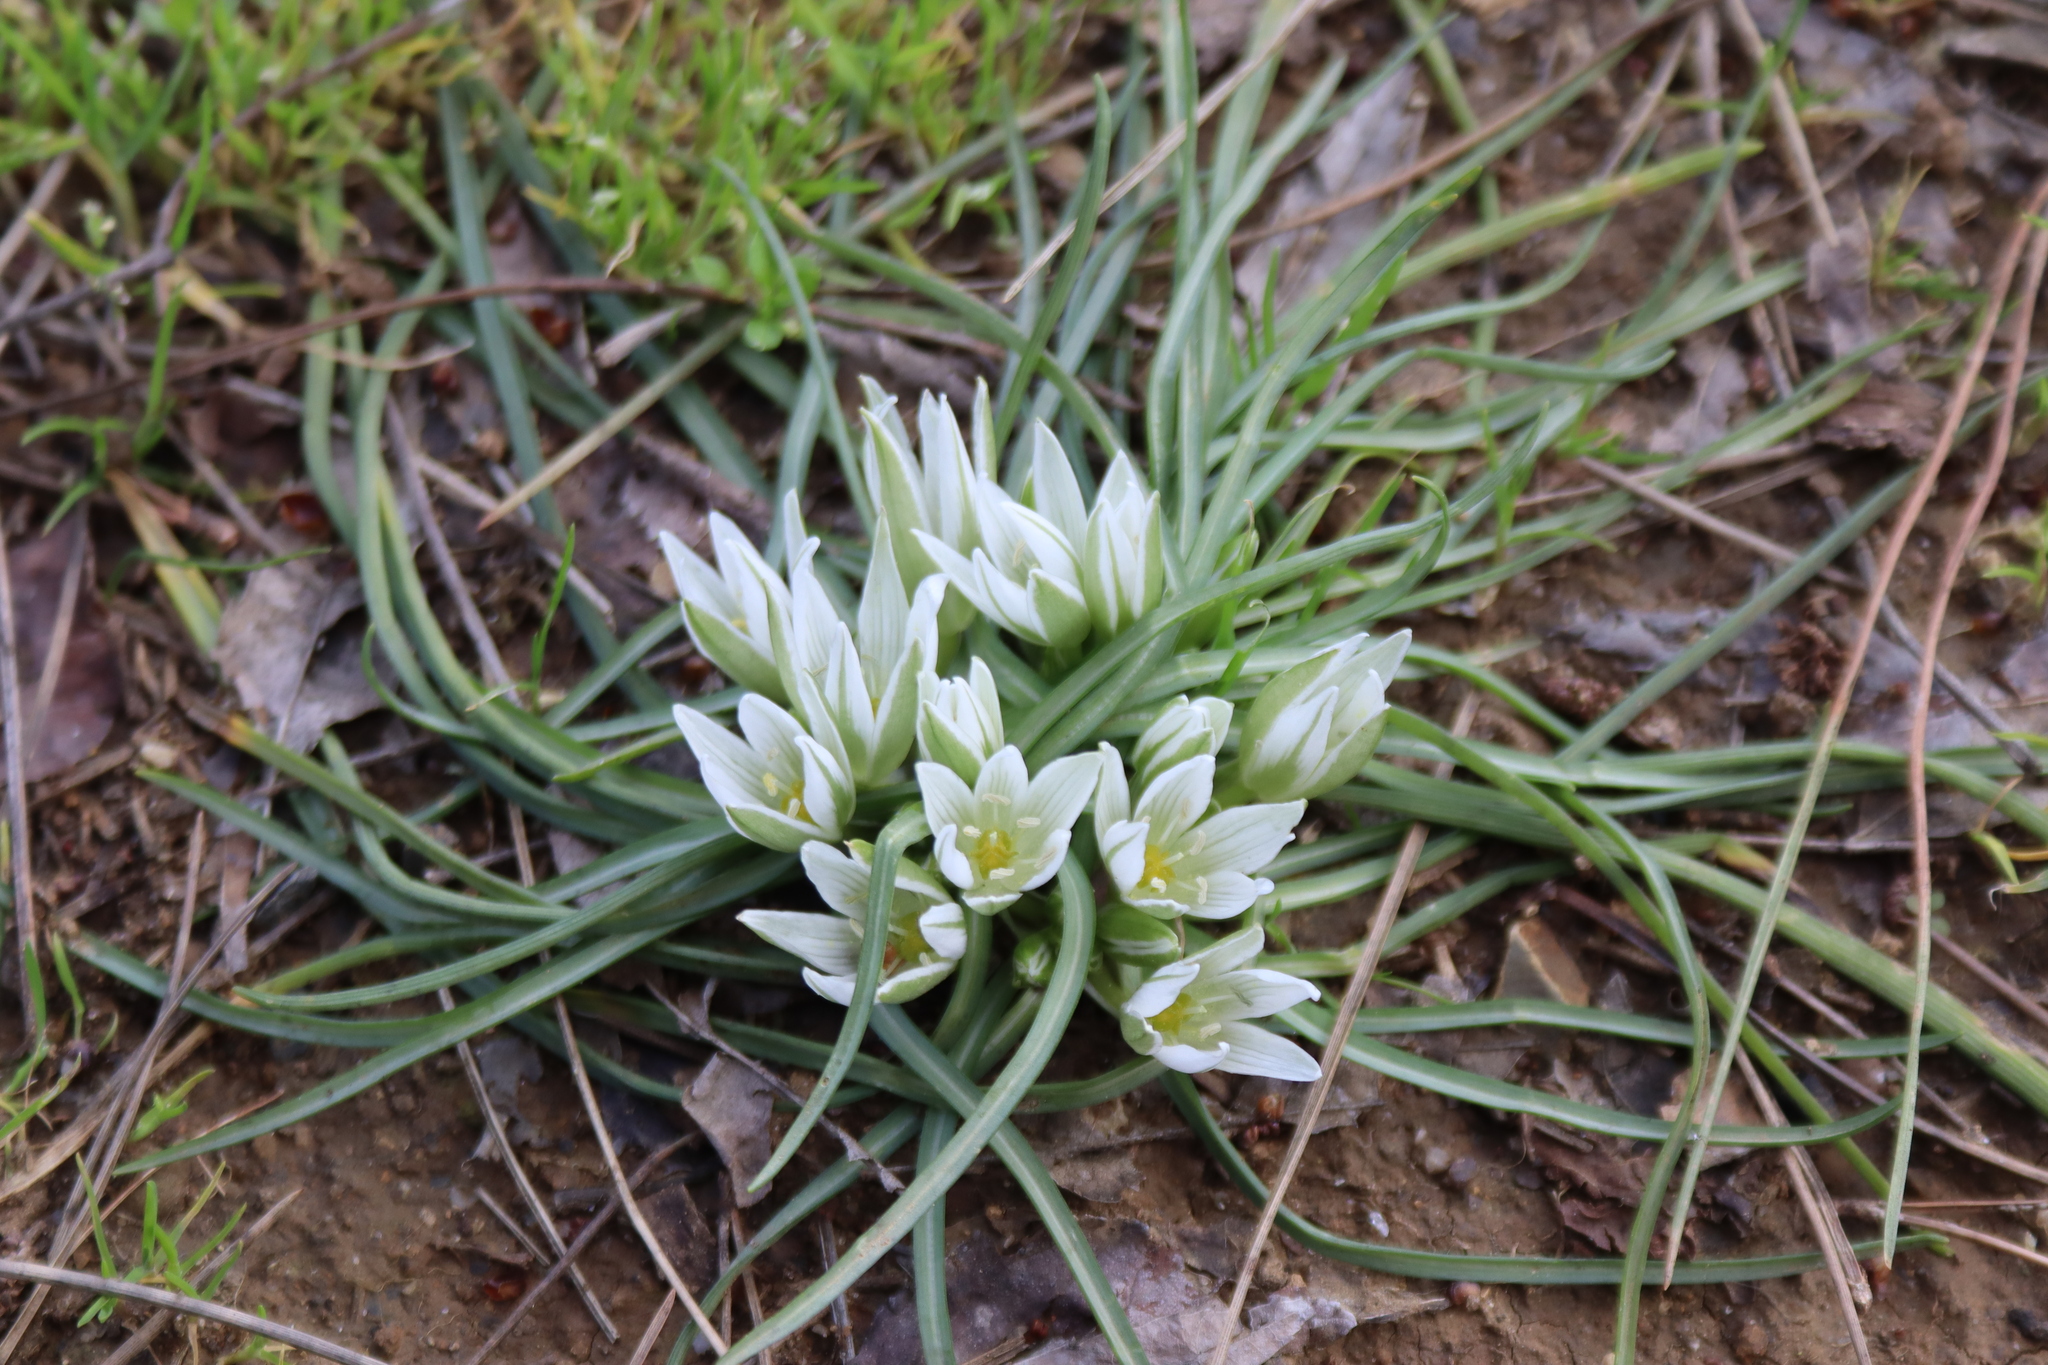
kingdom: Plantae
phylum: Tracheophyta
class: Liliopsida
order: Asparagales
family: Asparagaceae
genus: Ornithogalum
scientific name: Ornithogalum umbellatum
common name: Garden star-of-bethlehem
